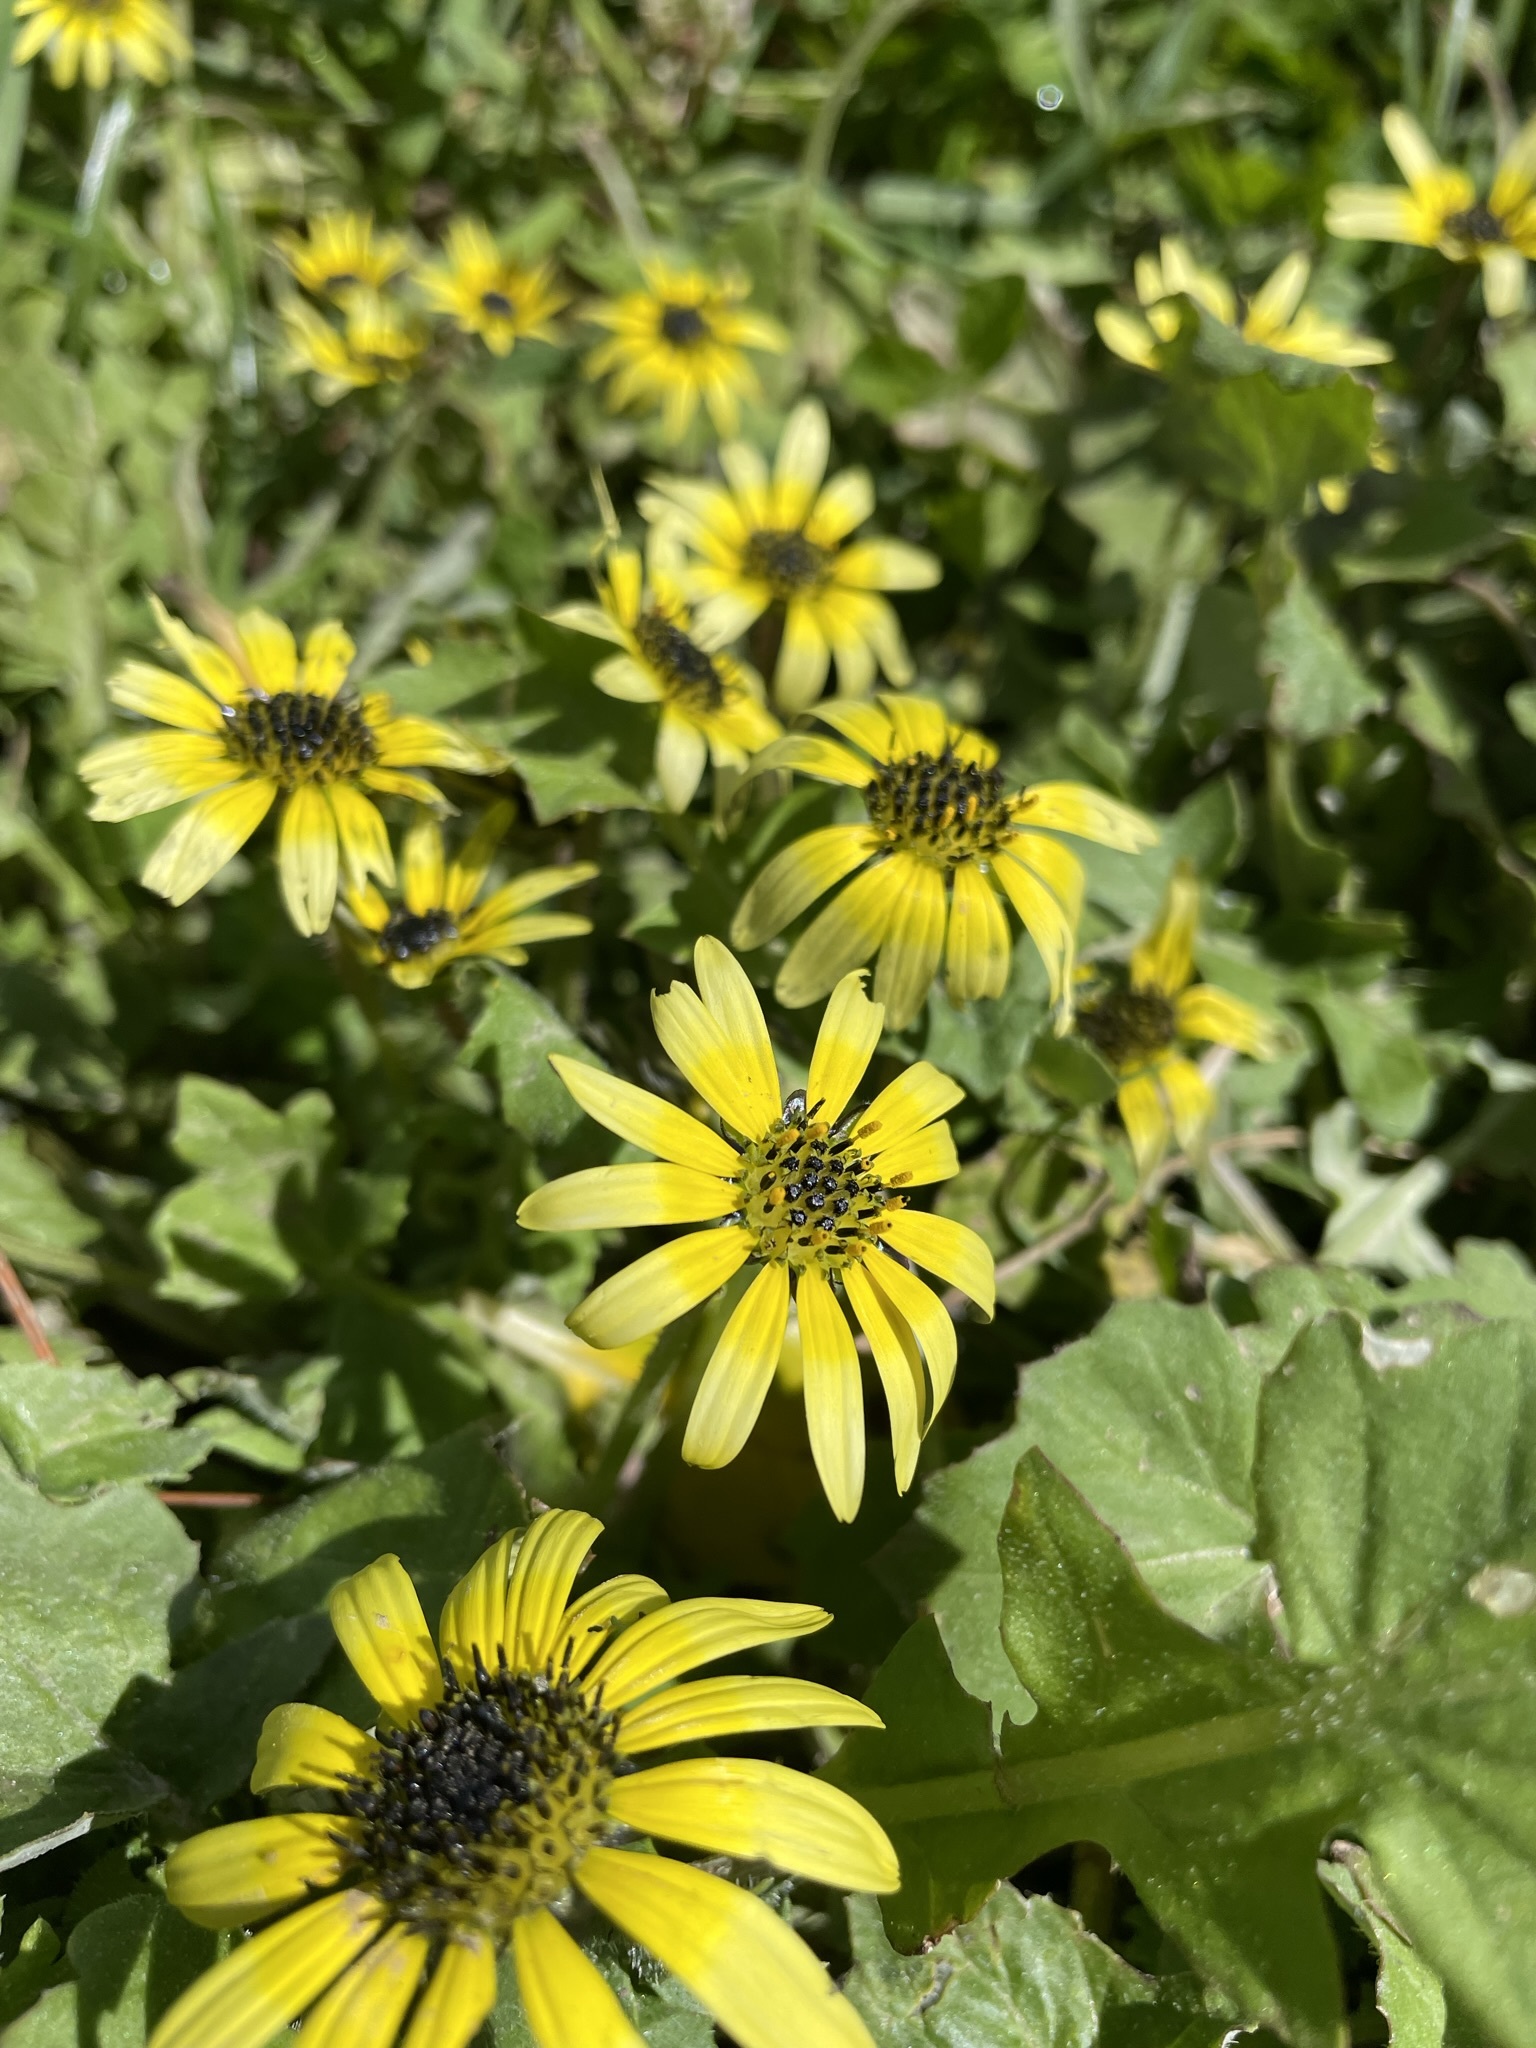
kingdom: Plantae
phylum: Tracheophyta
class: Magnoliopsida
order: Asterales
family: Asteraceae
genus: Arctotheca
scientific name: Arctotheca calendula
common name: Capeweed
